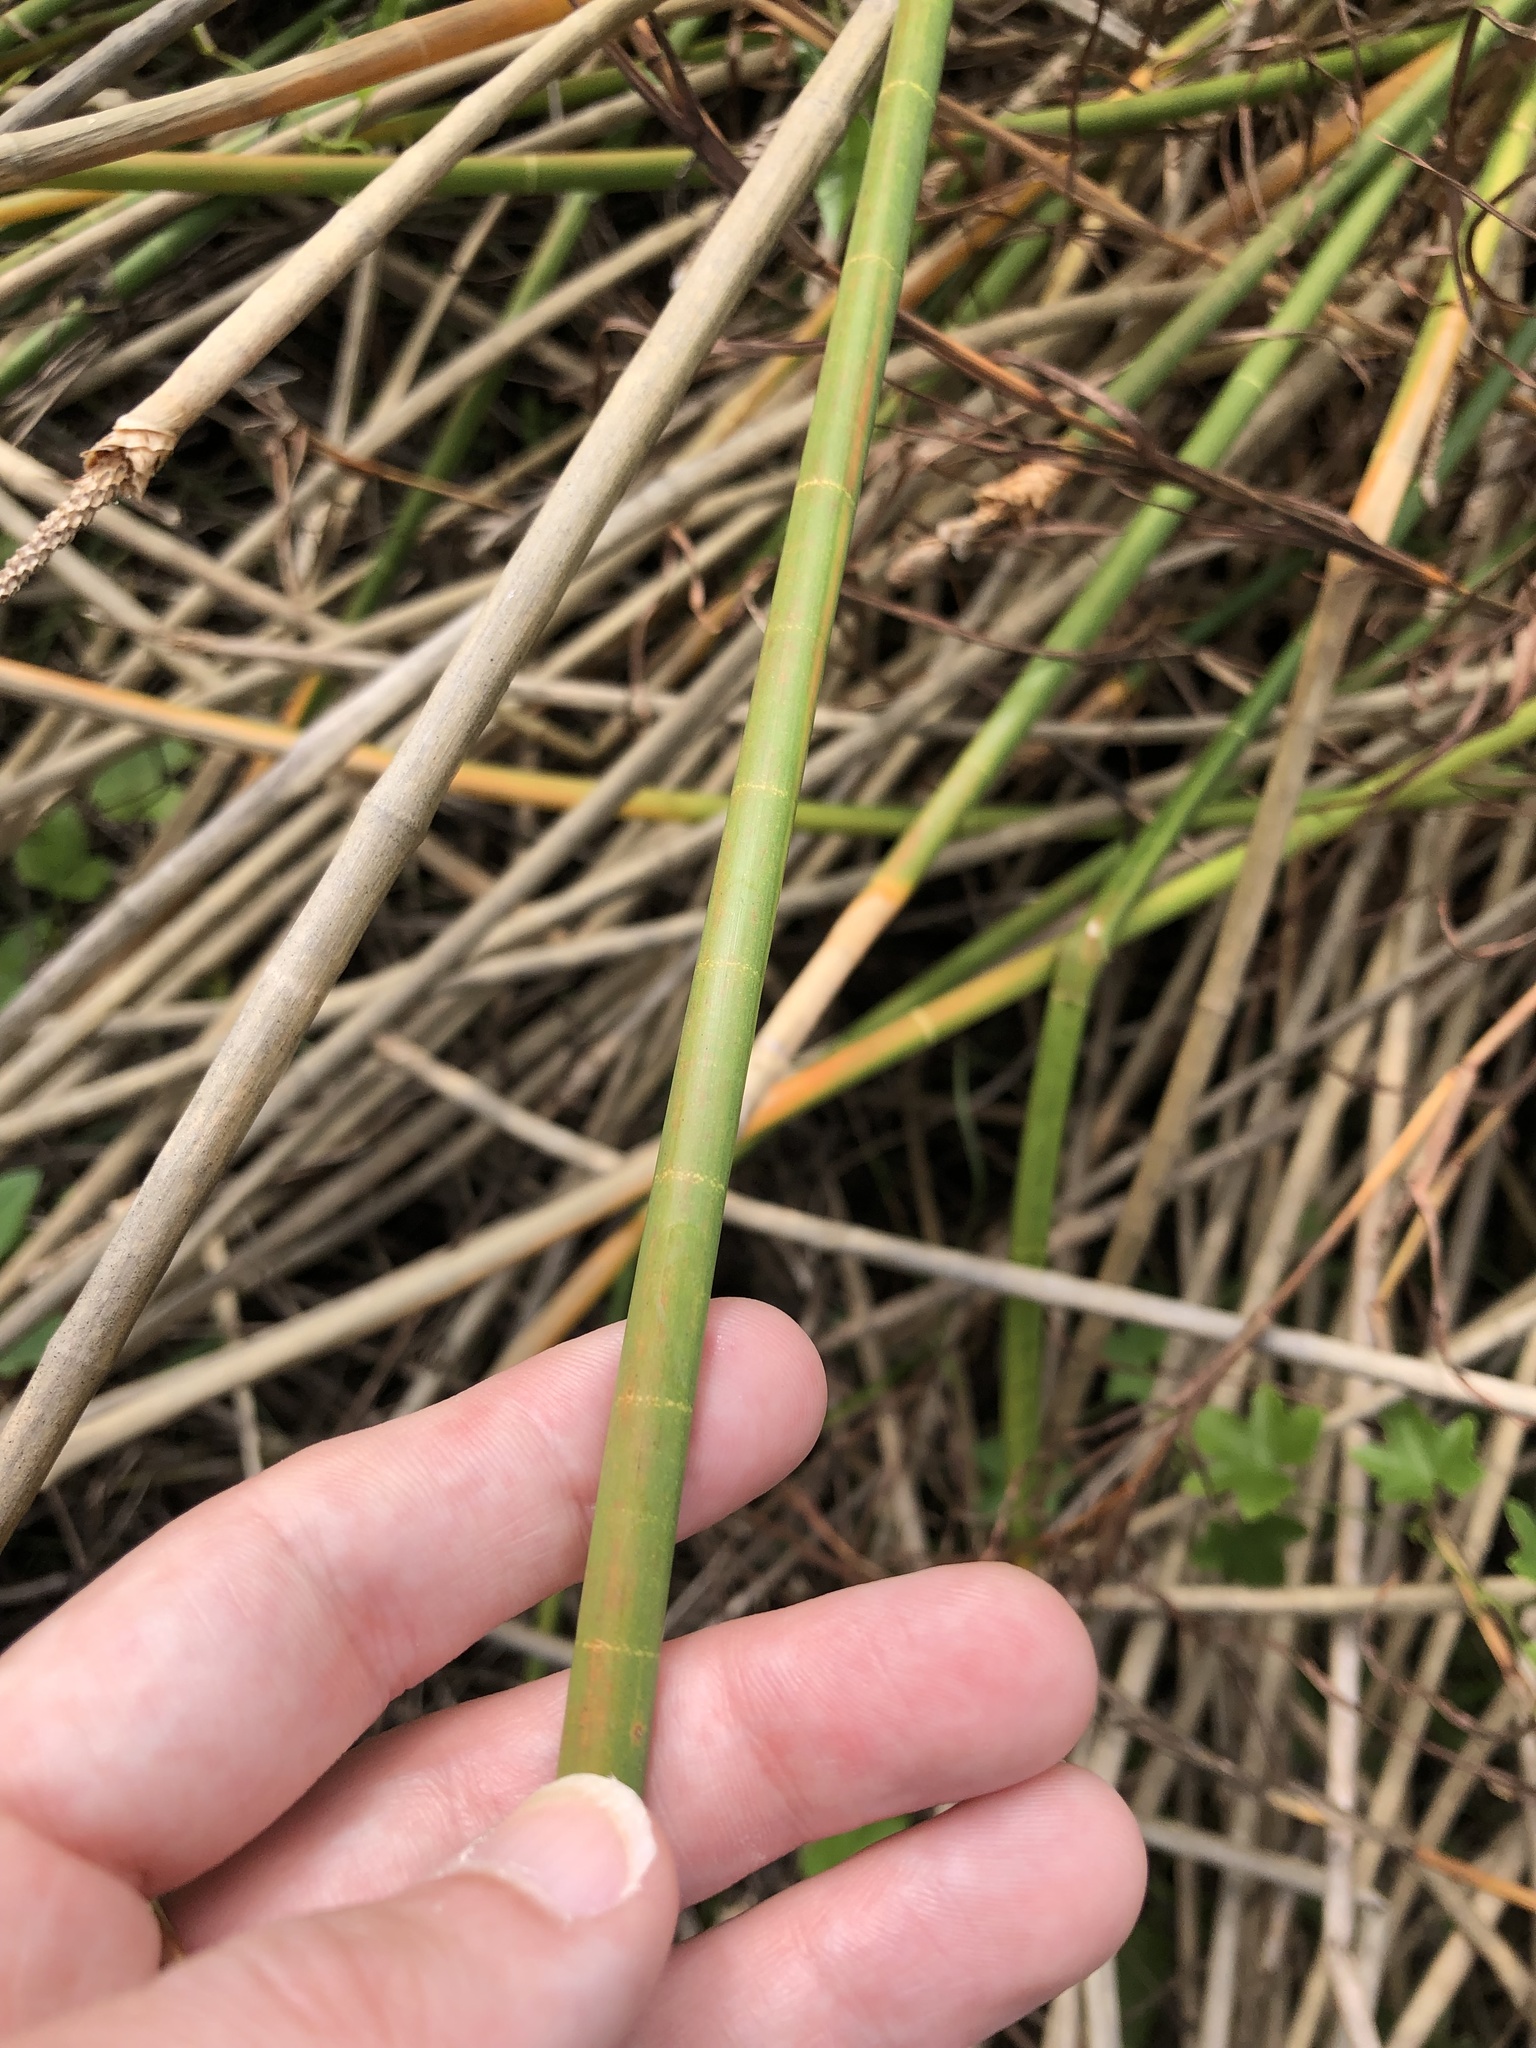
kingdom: Plantae
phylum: Tracheophyta
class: Liliopsida
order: Poales
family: Cyperaceae
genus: Eleocharis
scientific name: Eleocharis interstincta
